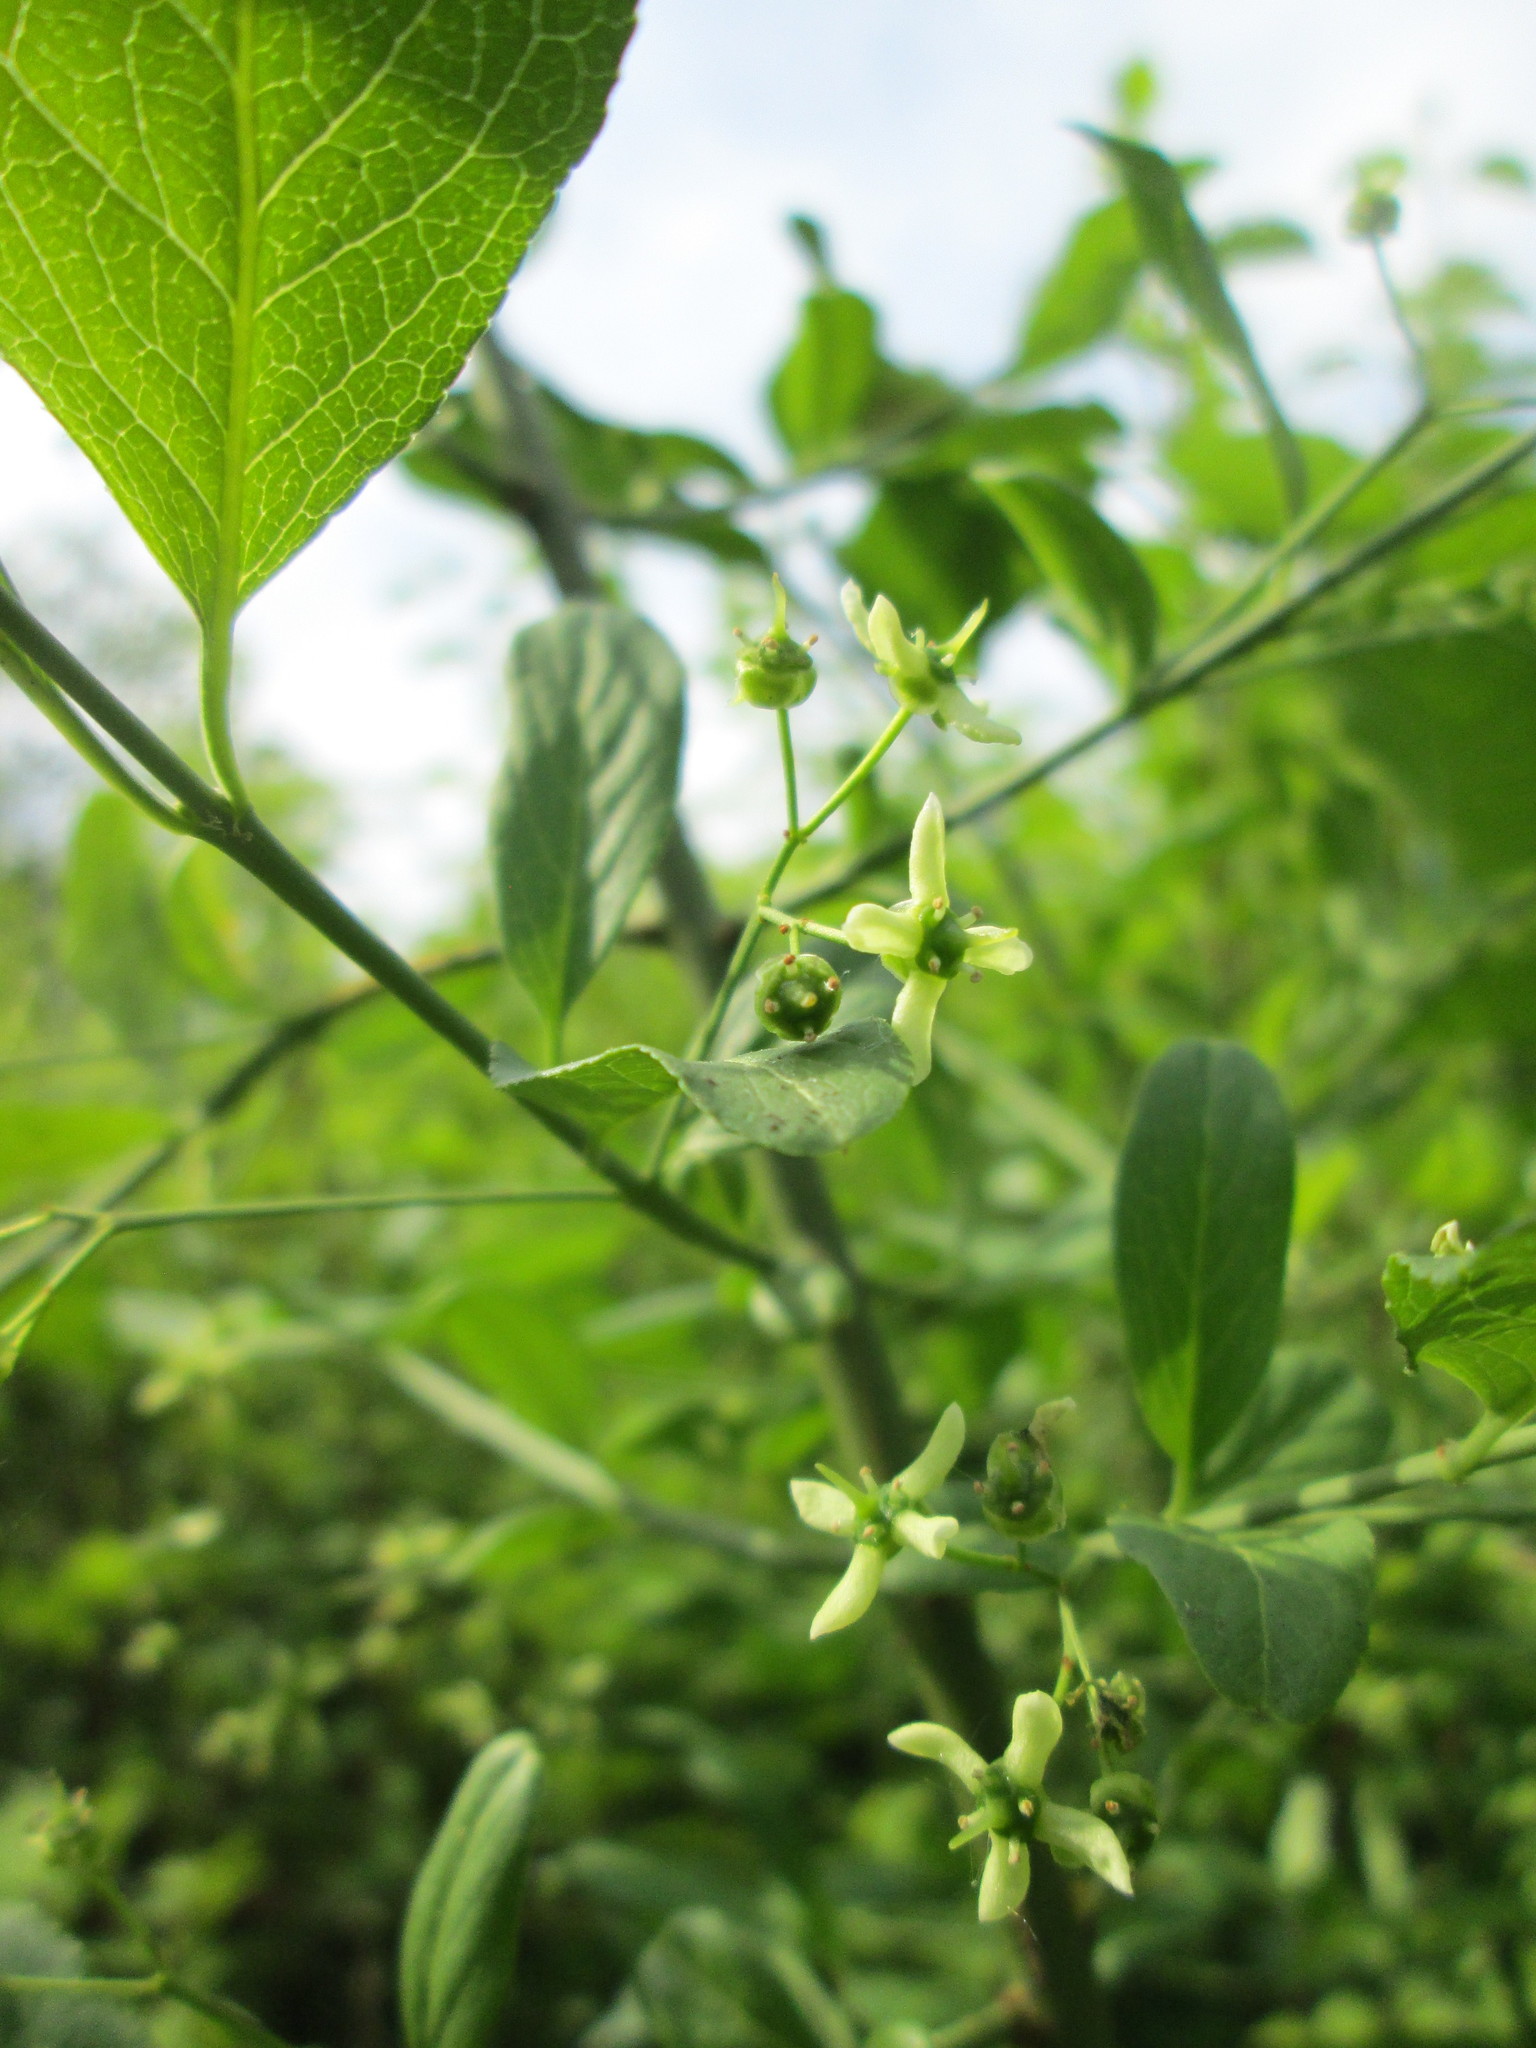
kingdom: Plantae
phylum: Tracheophyta
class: Magnoliopsida
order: Celastrales
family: Celastraceae
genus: Euonymus
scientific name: Euonymus europaeus
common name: Spindle
